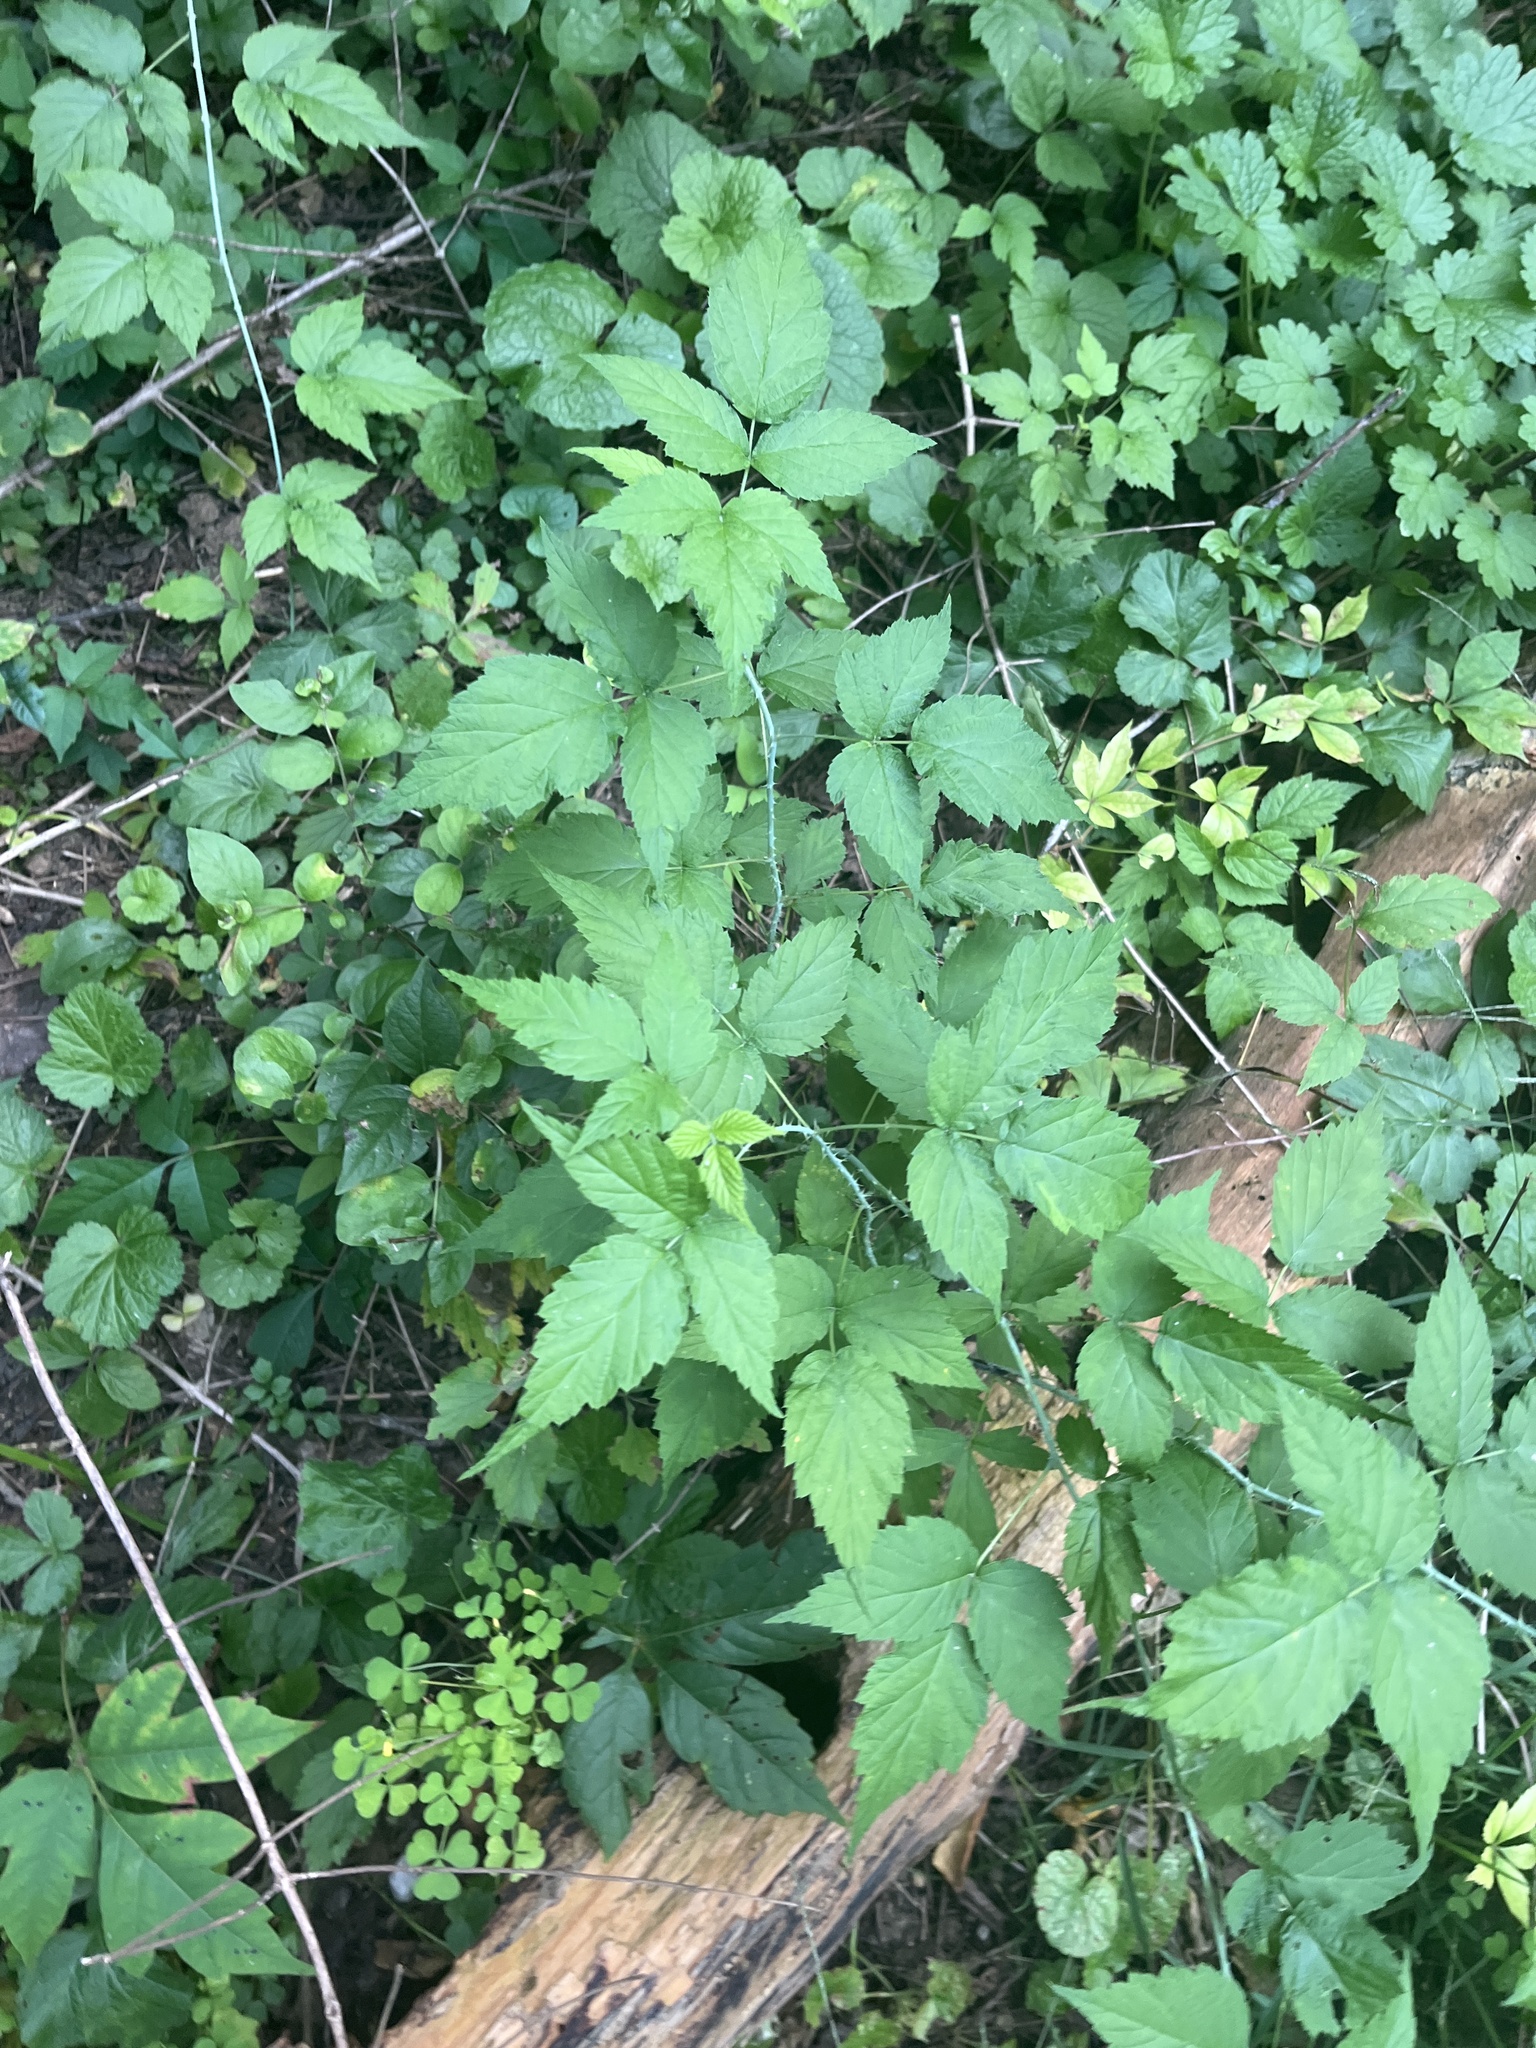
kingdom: Plantae
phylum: Tracheophyta
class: Magnoliopsida
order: Rosales
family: Rosaceae
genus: Rubus
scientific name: Rubus occidentalis
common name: Black raspberry
